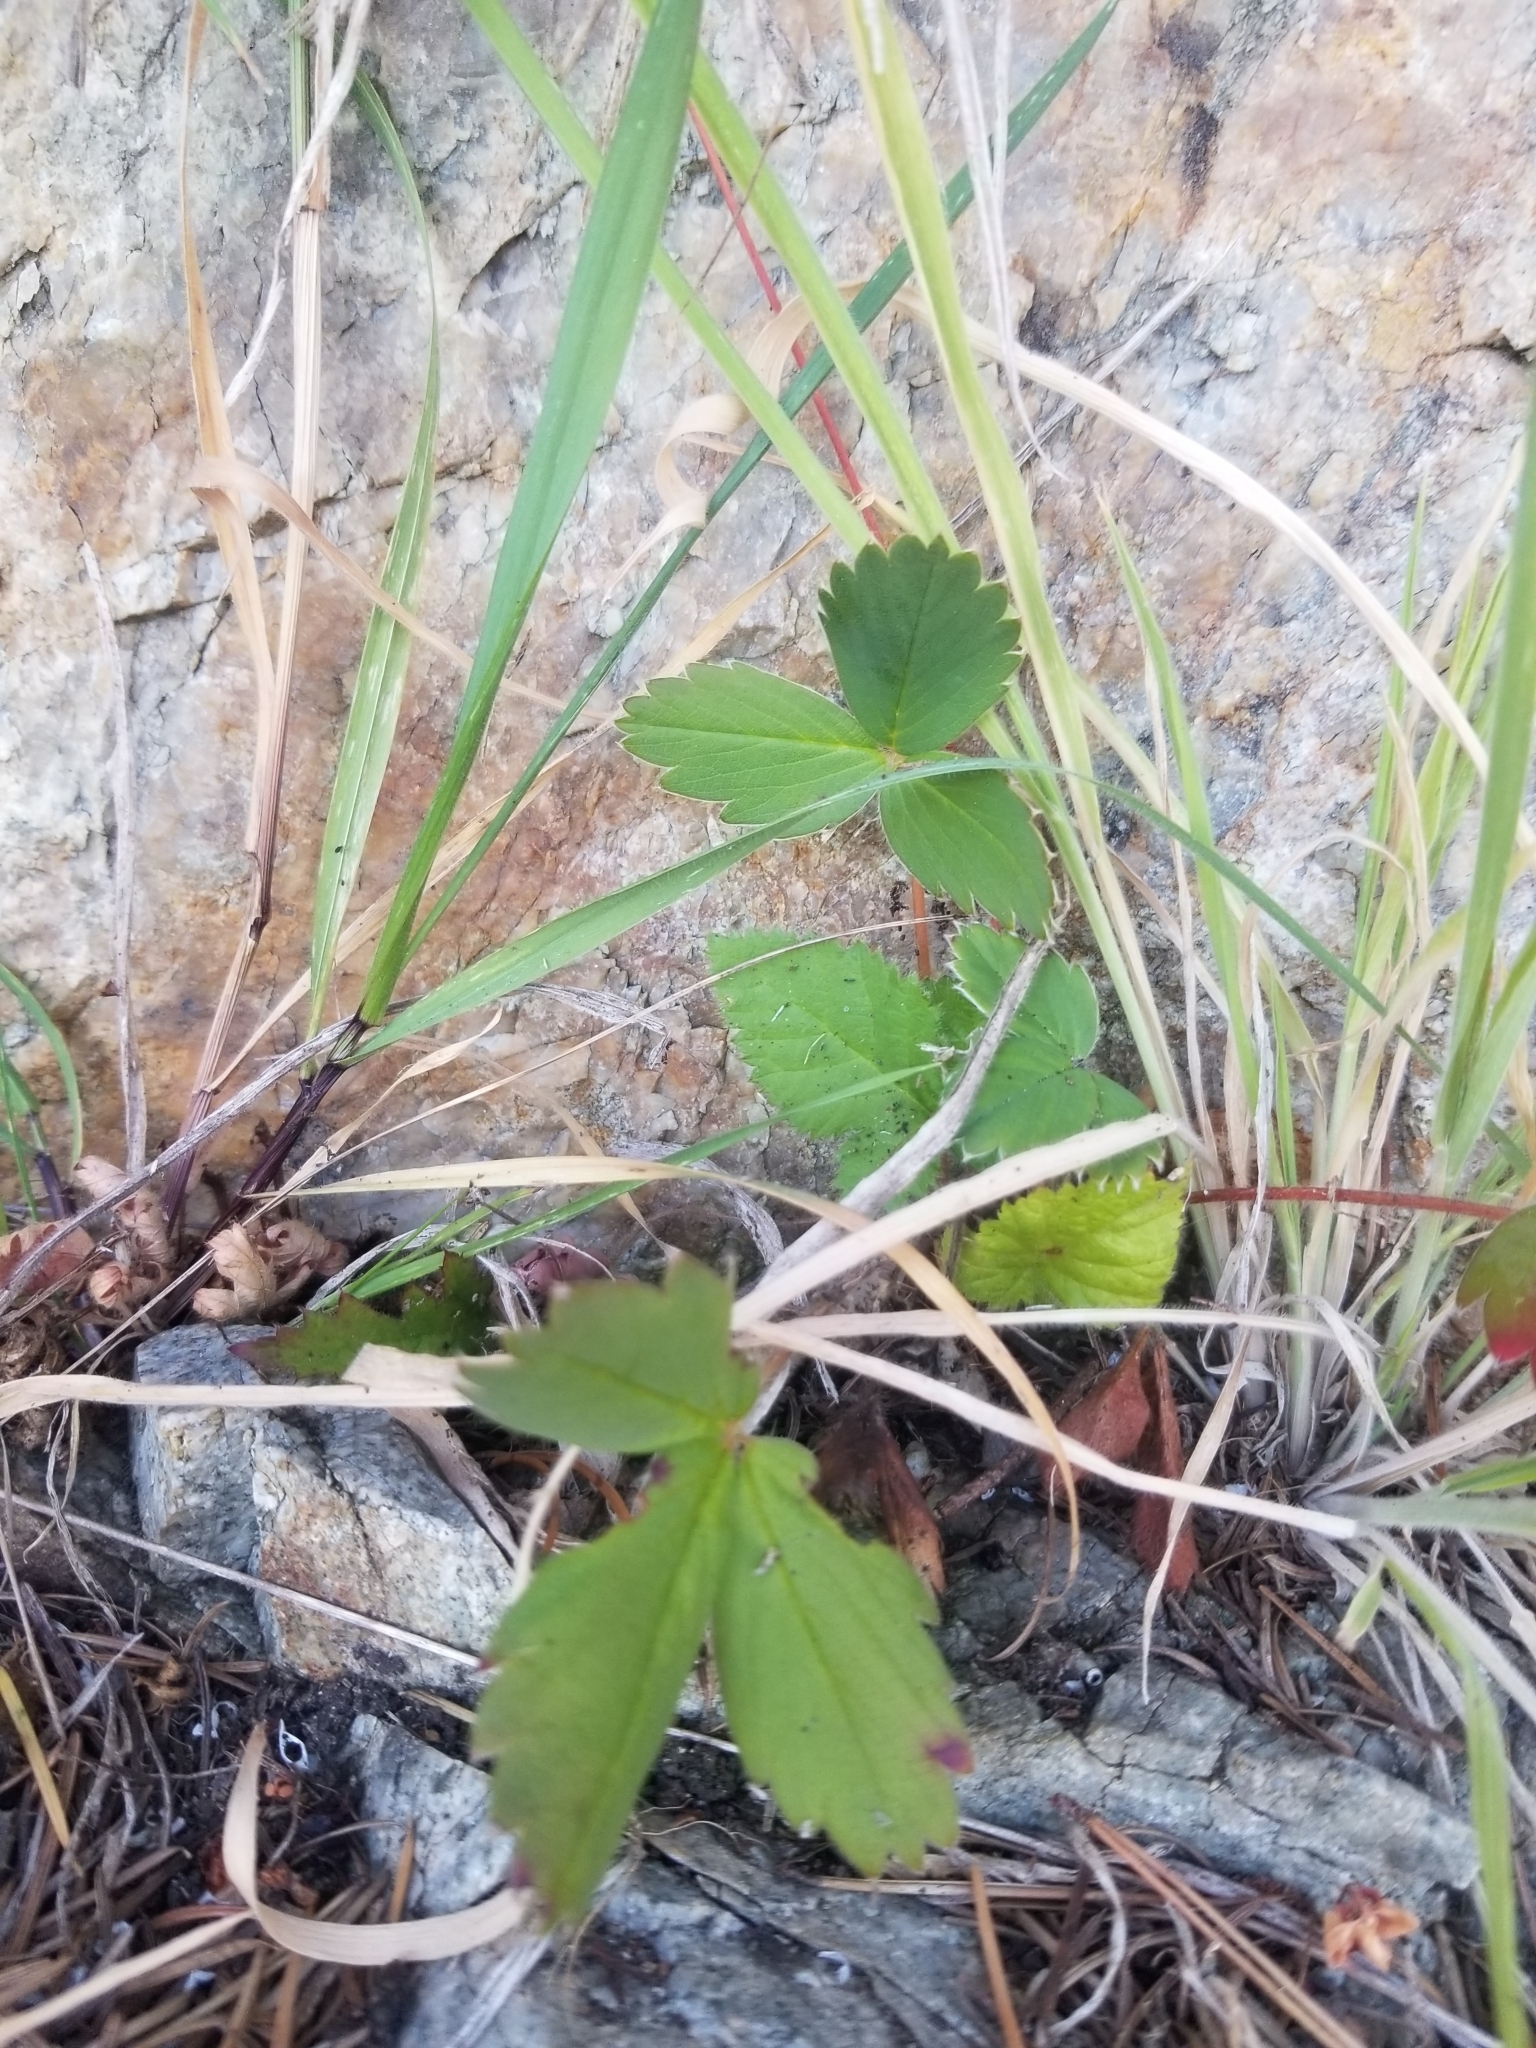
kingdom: Plantae
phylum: Tracheophyta
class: Magnoliopsida
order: Rosales
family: Rosaceae
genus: Fragaria
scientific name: Fragaria virginiana
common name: Thickleaved wild strawberry
